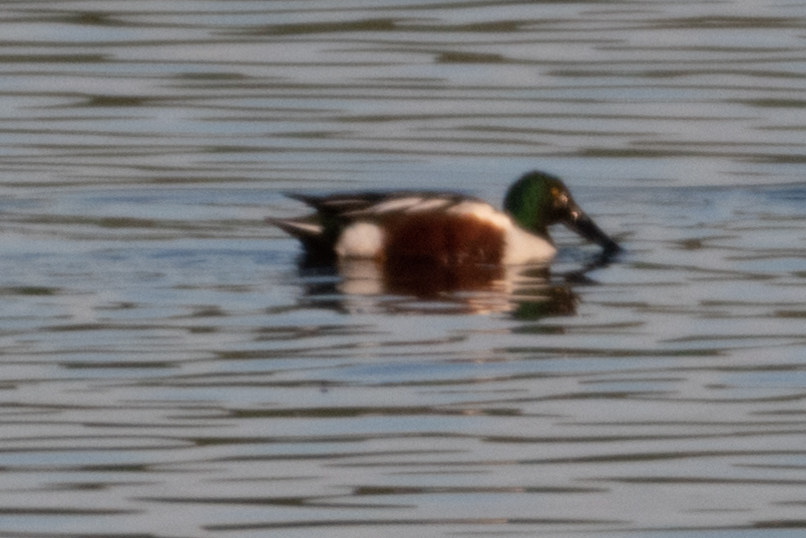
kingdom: Animalia
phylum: Chordata
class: Aves
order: Anseriformes
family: Anatidae
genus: Spatula
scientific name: Spatula clypeata
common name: Northern shoveler
